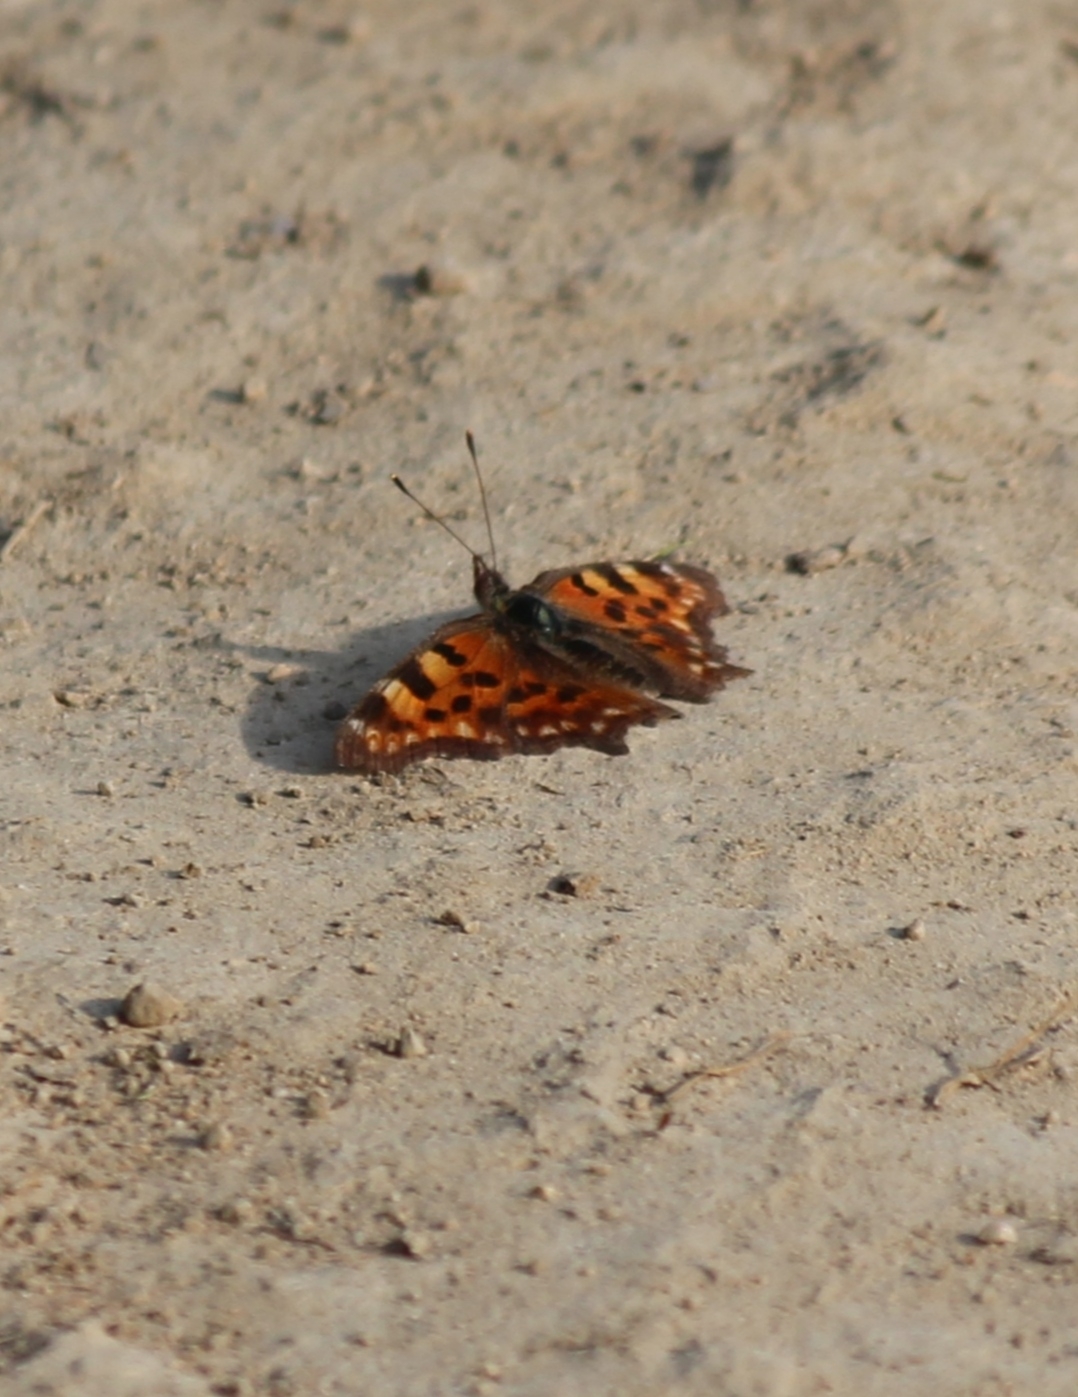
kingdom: Animalia
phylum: Arthropoda
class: Insecta
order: Lepidoptera
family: Nymphalidae
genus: Polygonia
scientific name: Polygonia c-album
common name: Comma
